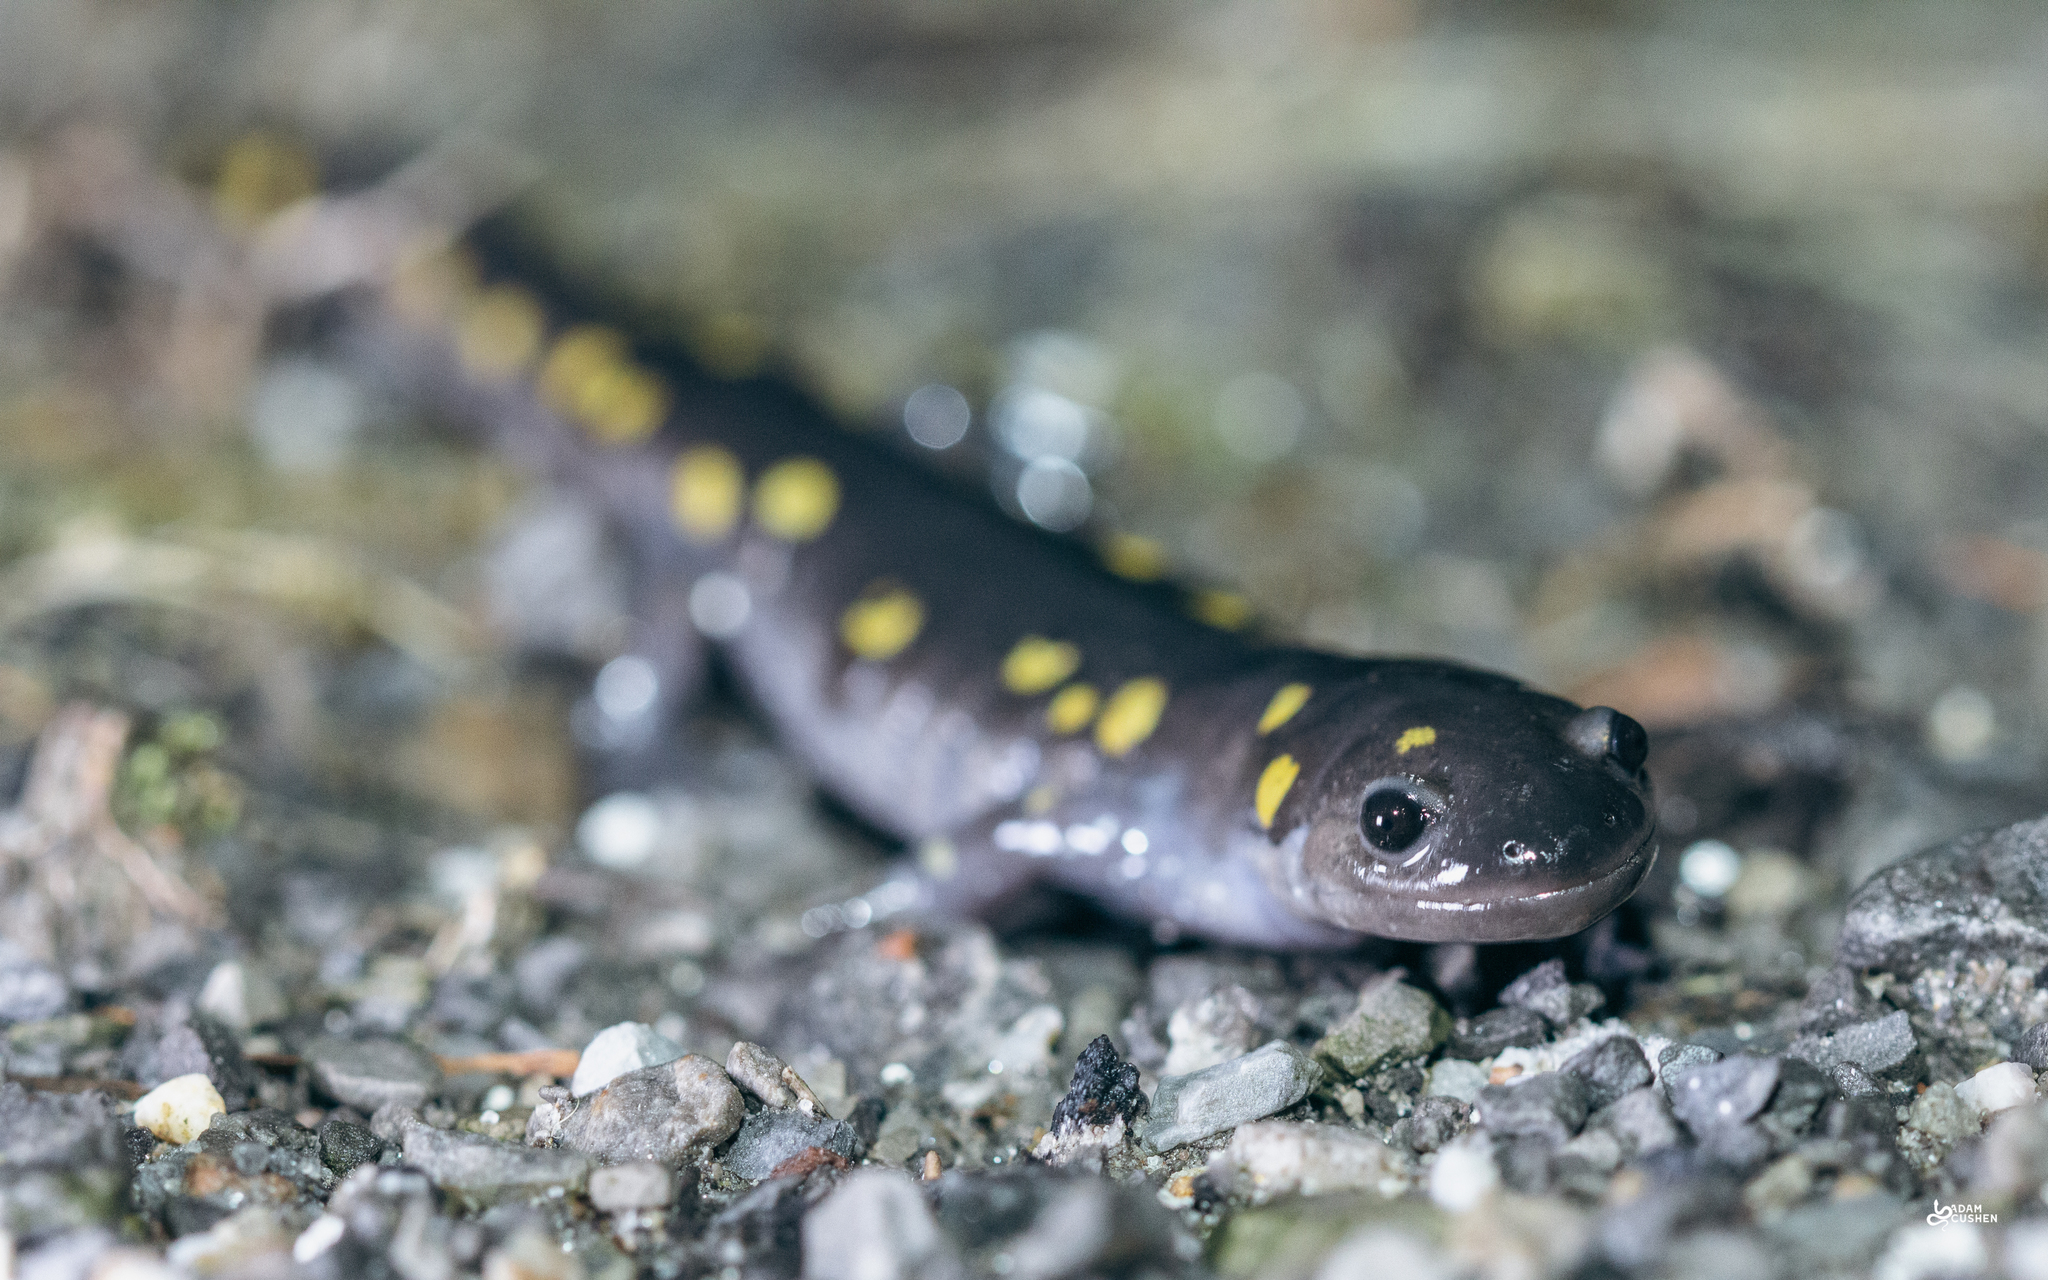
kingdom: Animalia
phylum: Chordata
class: Amphibia
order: Caudata
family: Ambystomatidae
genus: Ambystoma
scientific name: Ambystoma maculatum
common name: Spotted salamander
